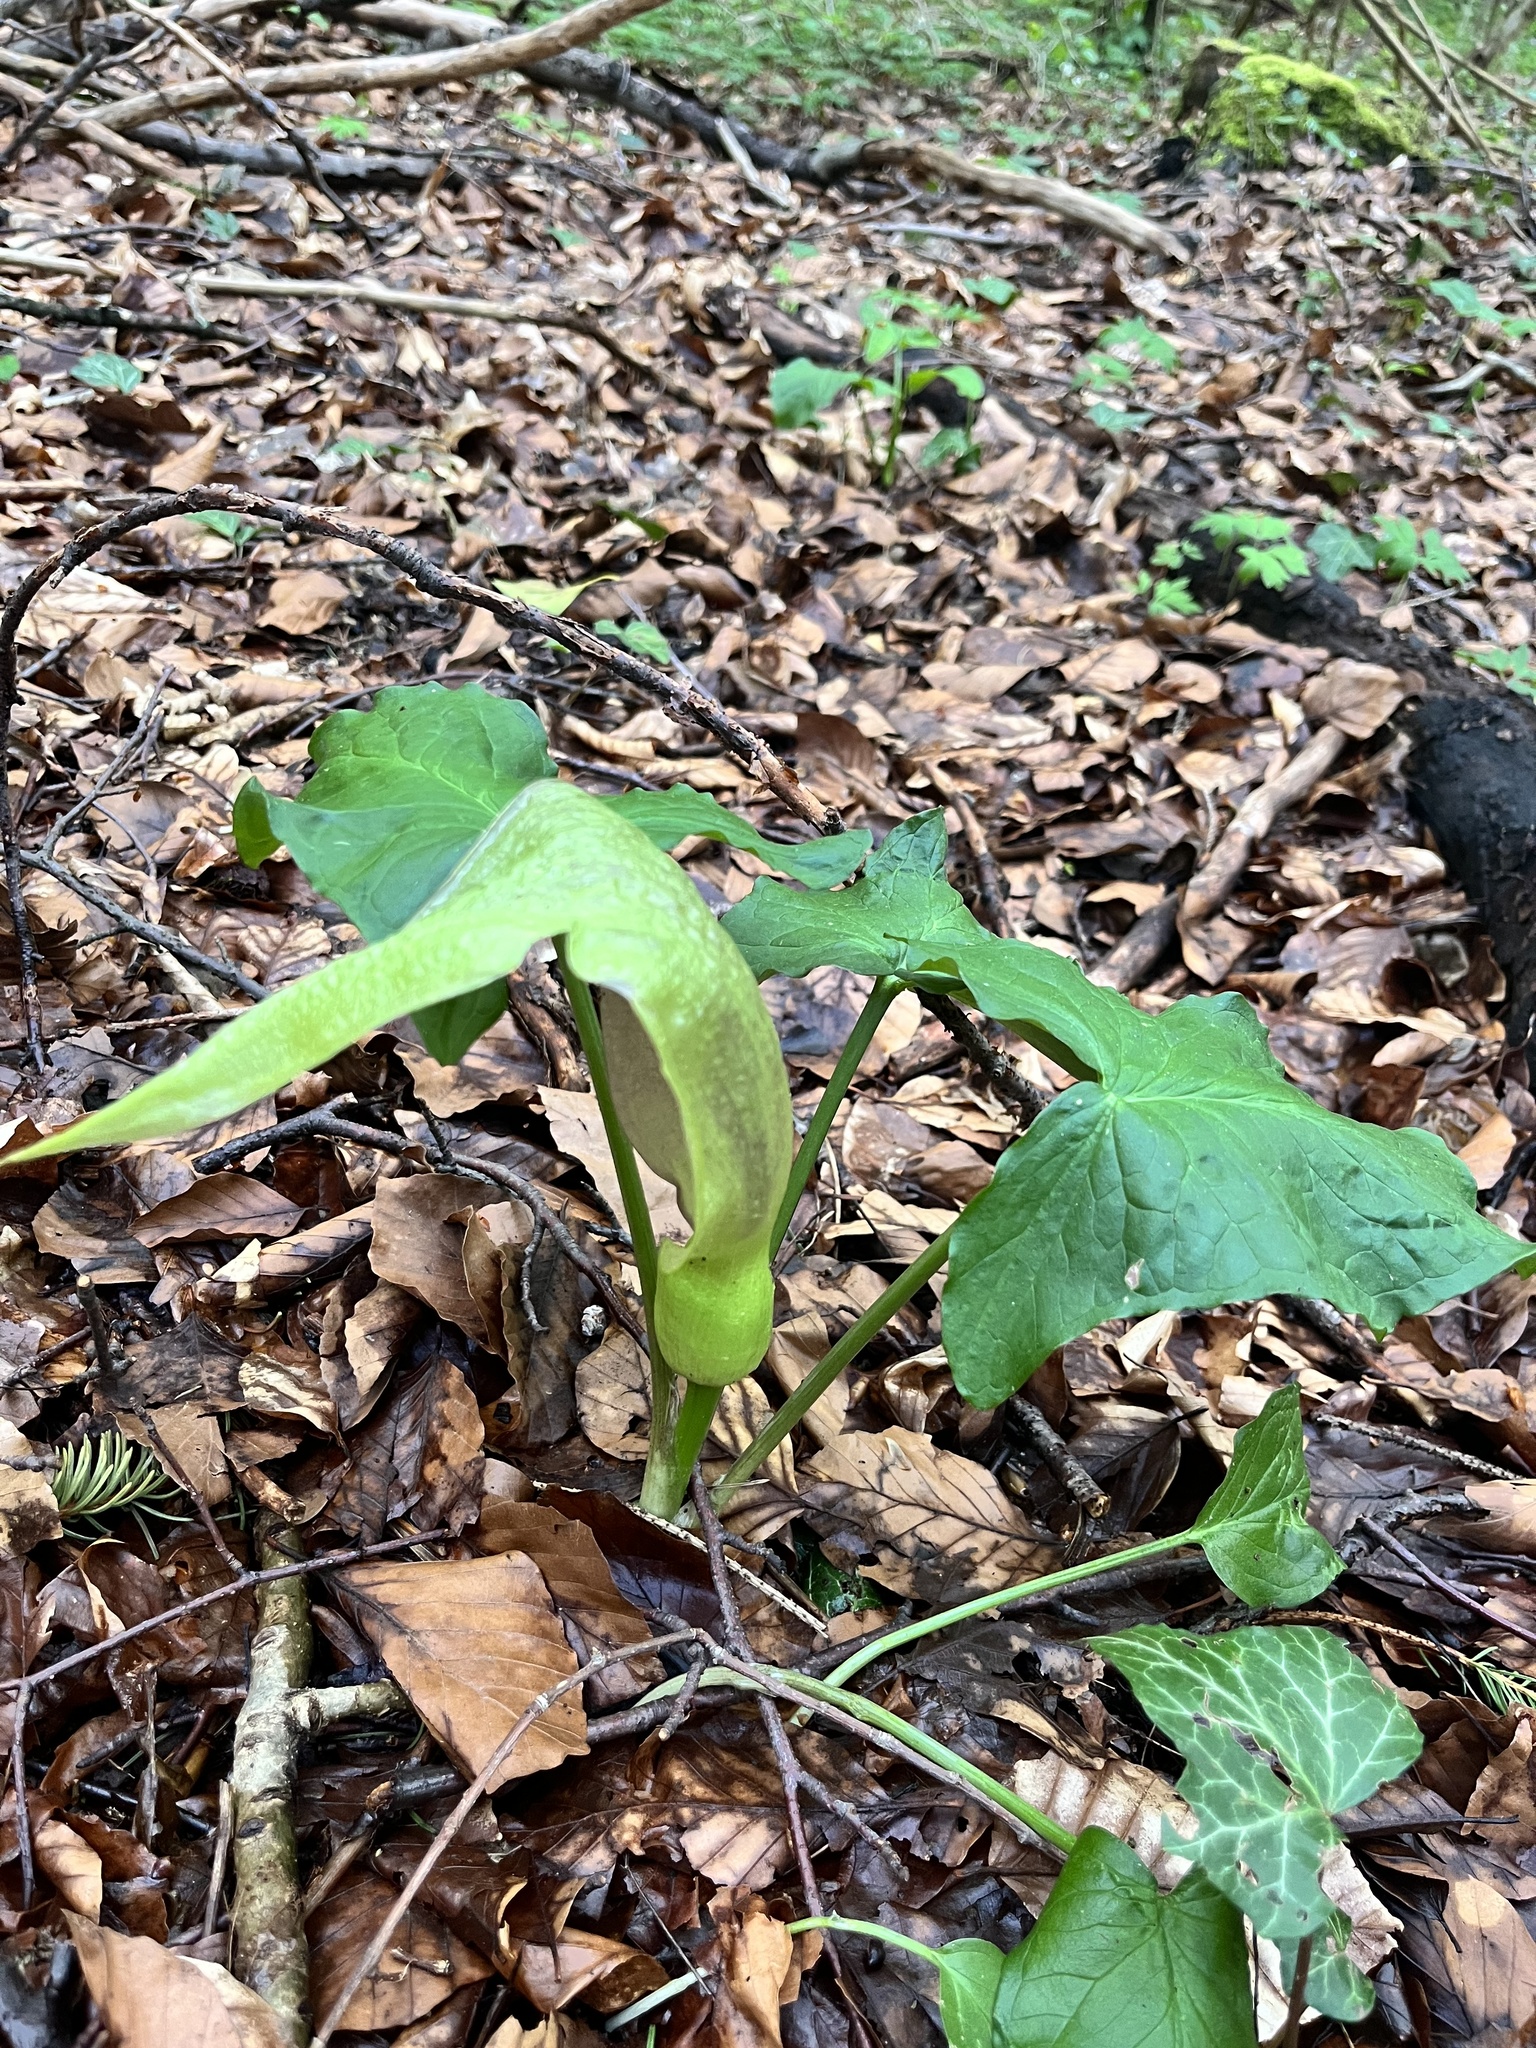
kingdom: Plantae
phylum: Tracheophyta
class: Liliopsida
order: Alismatales
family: Araceae
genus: Arum
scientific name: Arum maculatum
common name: Lords-and-ladies
